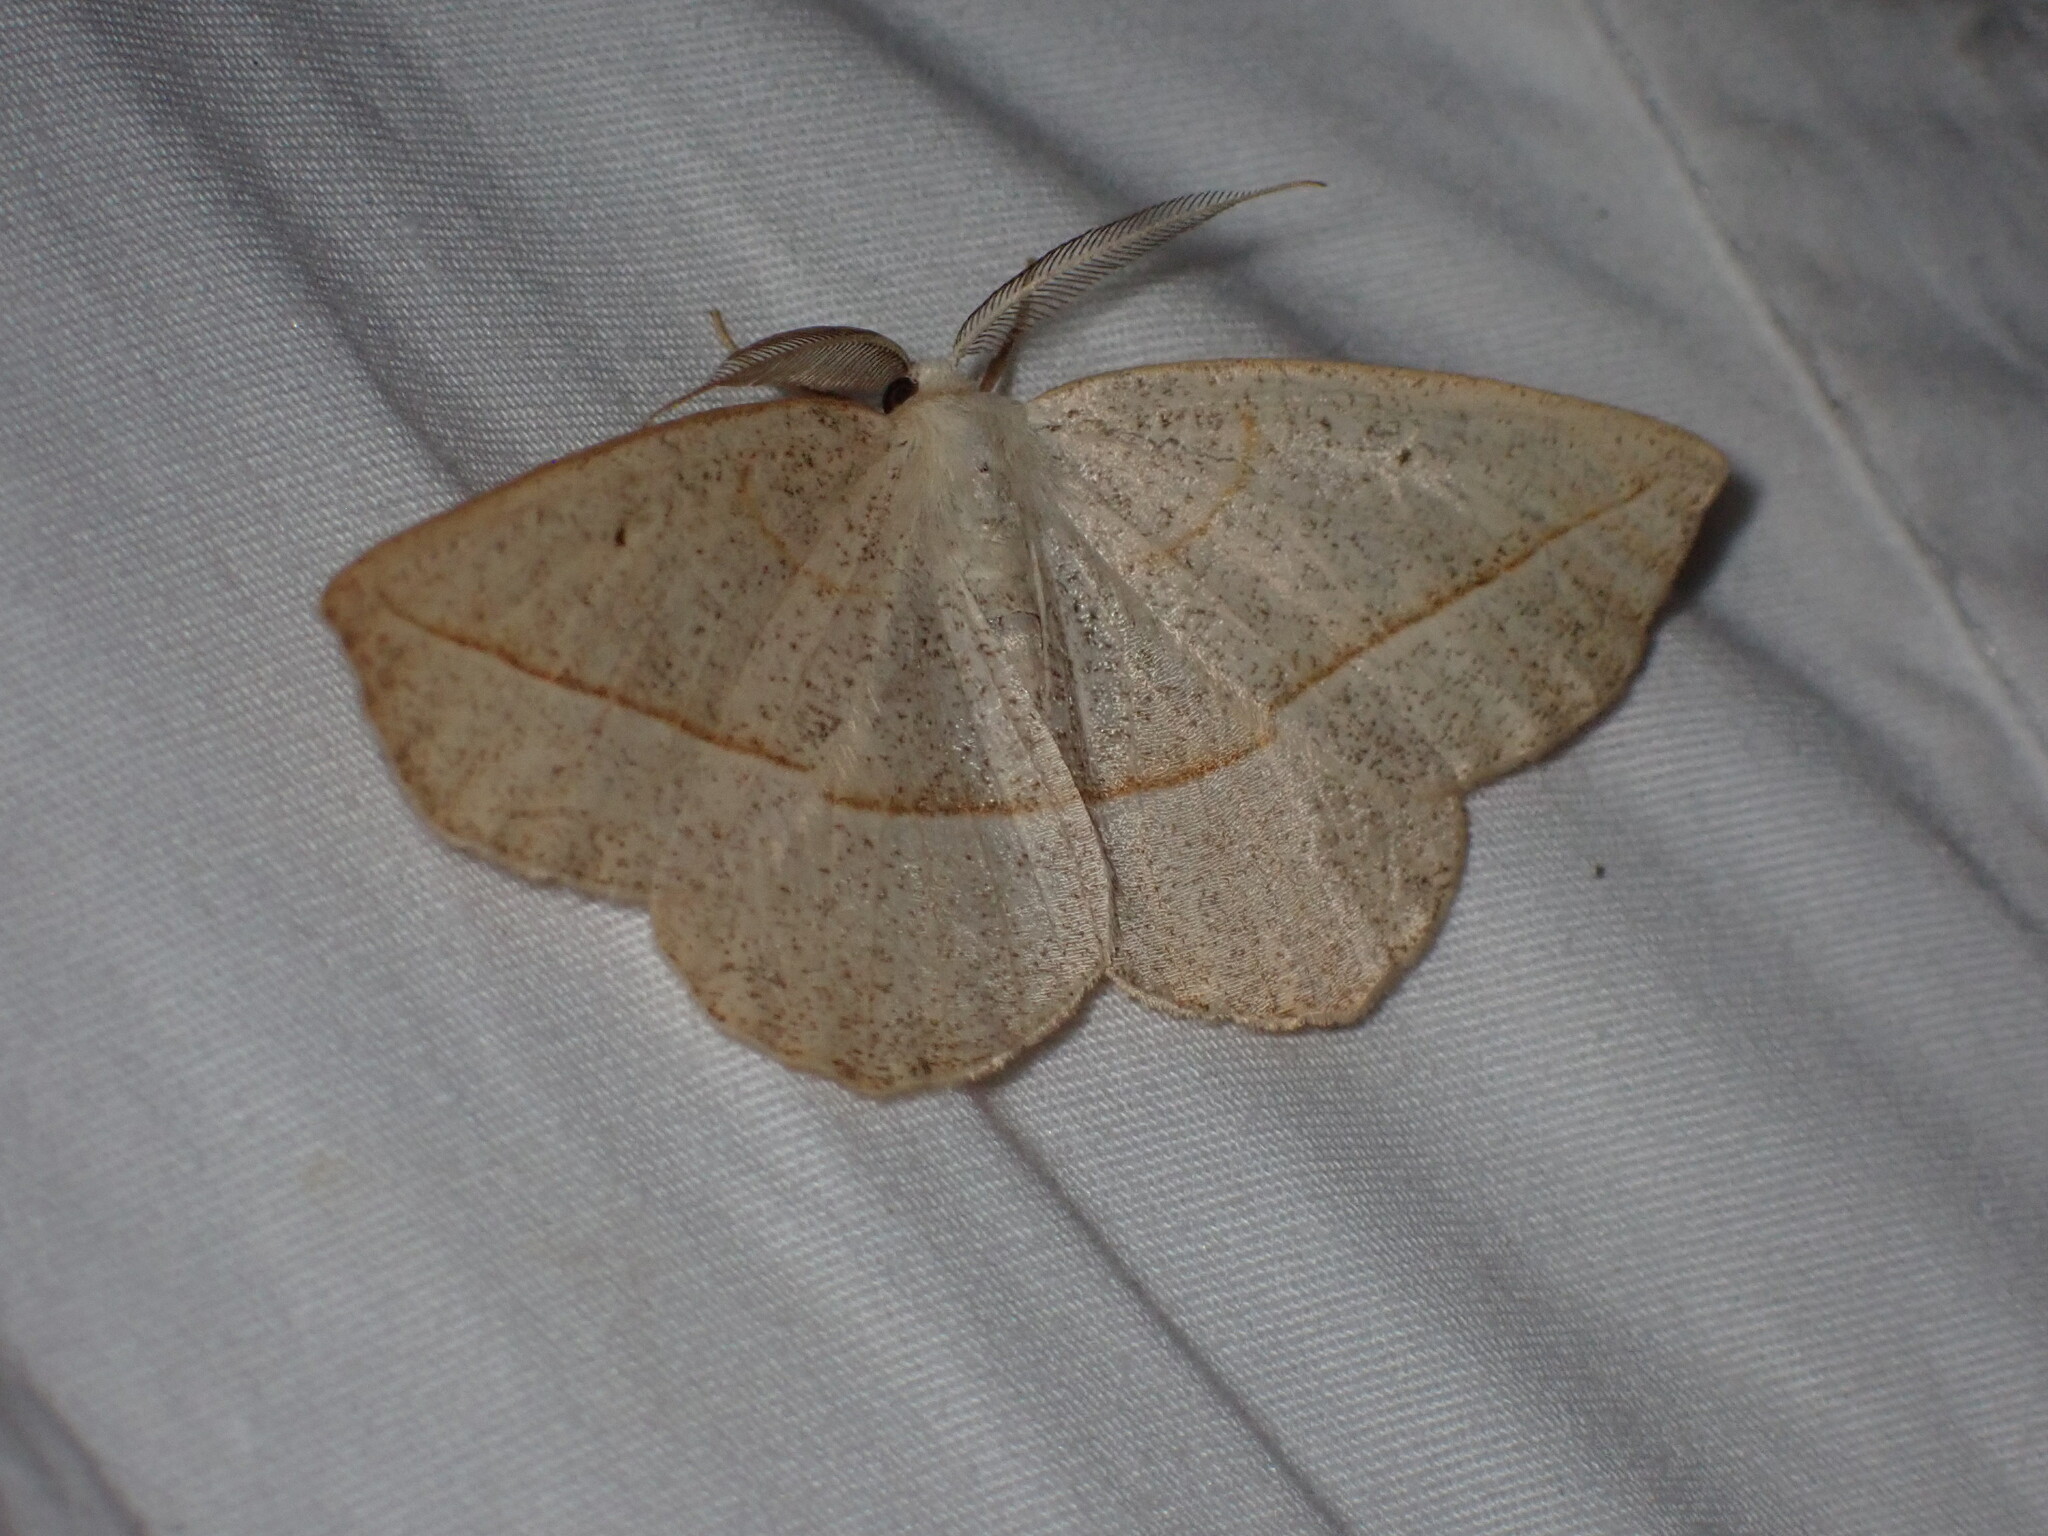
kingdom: Animalia
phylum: Arthropoda
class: Insecta
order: Lepidoptera
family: Geometridae
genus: Eusarca
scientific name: Eusarca confusaria
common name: Confused eusarca
